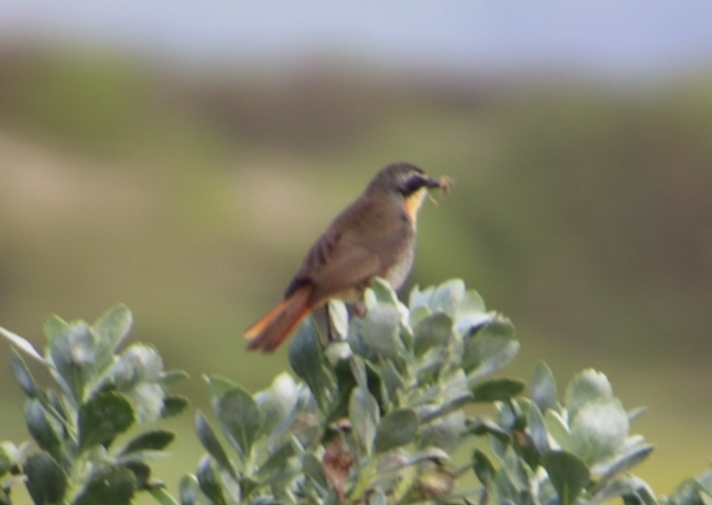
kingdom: Animalia
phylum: Chordata
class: Aves
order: Passeriformes
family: Muscicapidae
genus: Cossypha
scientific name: Cossypha caffra
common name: Cape robin-chat
